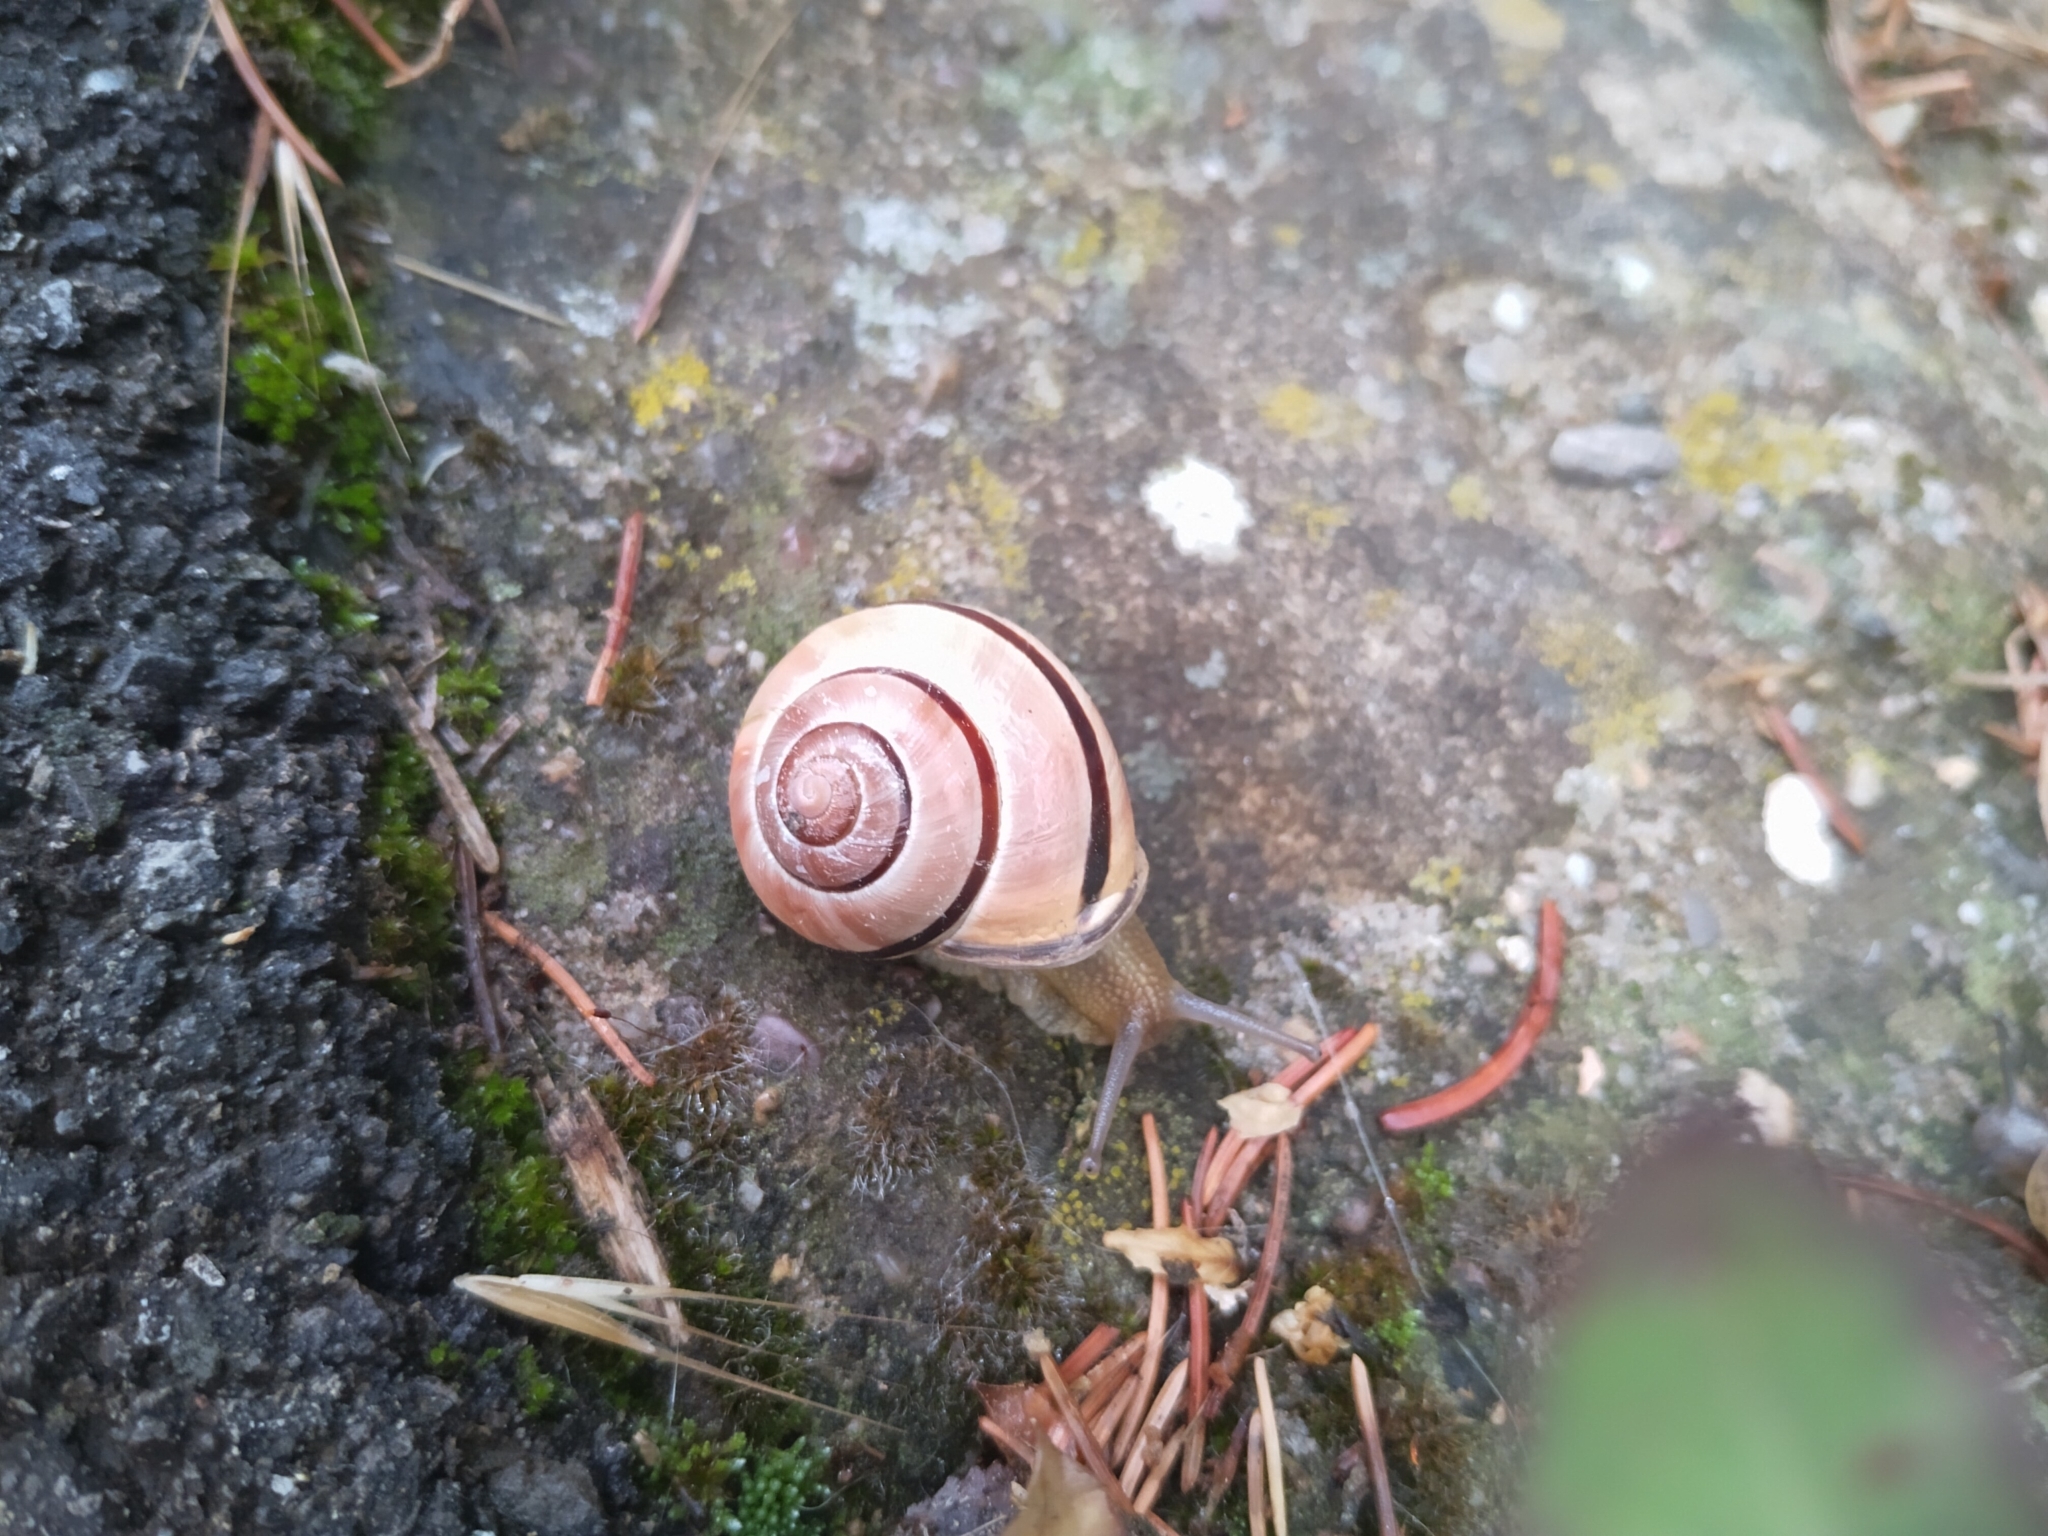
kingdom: Animalia
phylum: Mollusca
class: Gastropoda
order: Stylommatophora
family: Helicidae
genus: Cepaea
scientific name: Cepaea nemoralis
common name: Grovesnail
